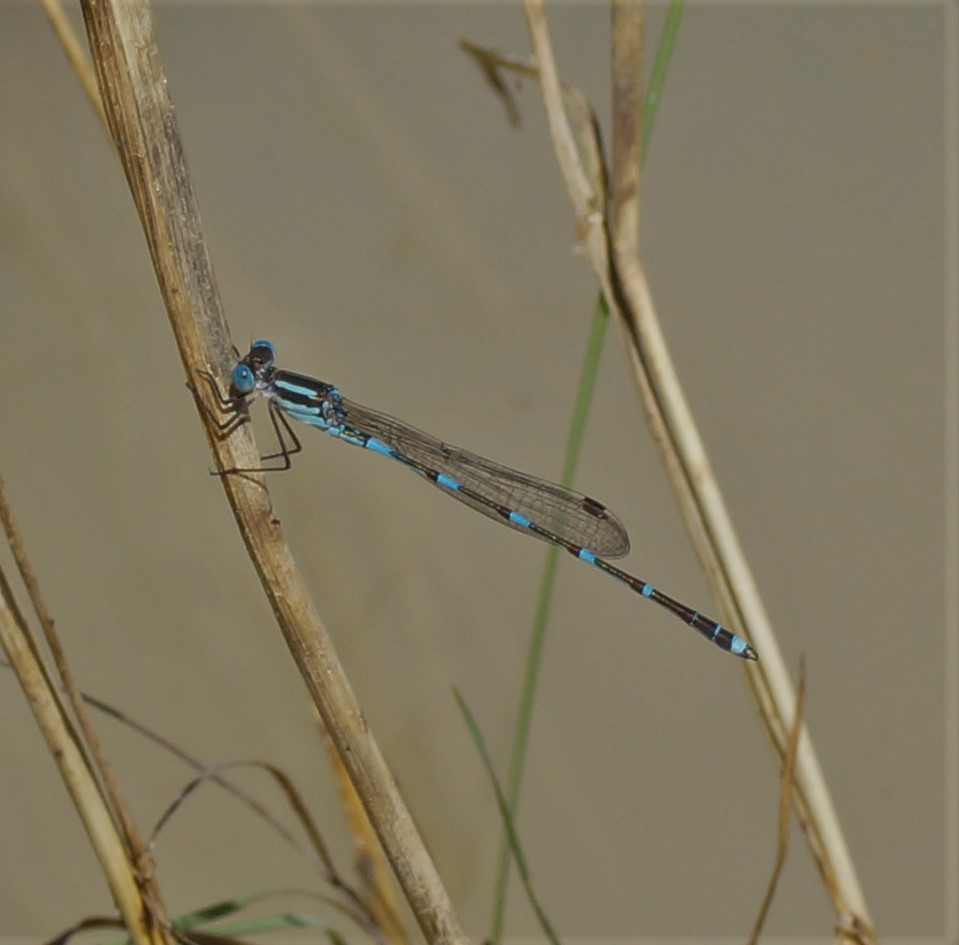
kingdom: Animalia
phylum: Arthropoda
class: Insecta
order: Odonata
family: Lestidae
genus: Austrolestes
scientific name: Austrolestes leda
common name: Wandering ringtail
